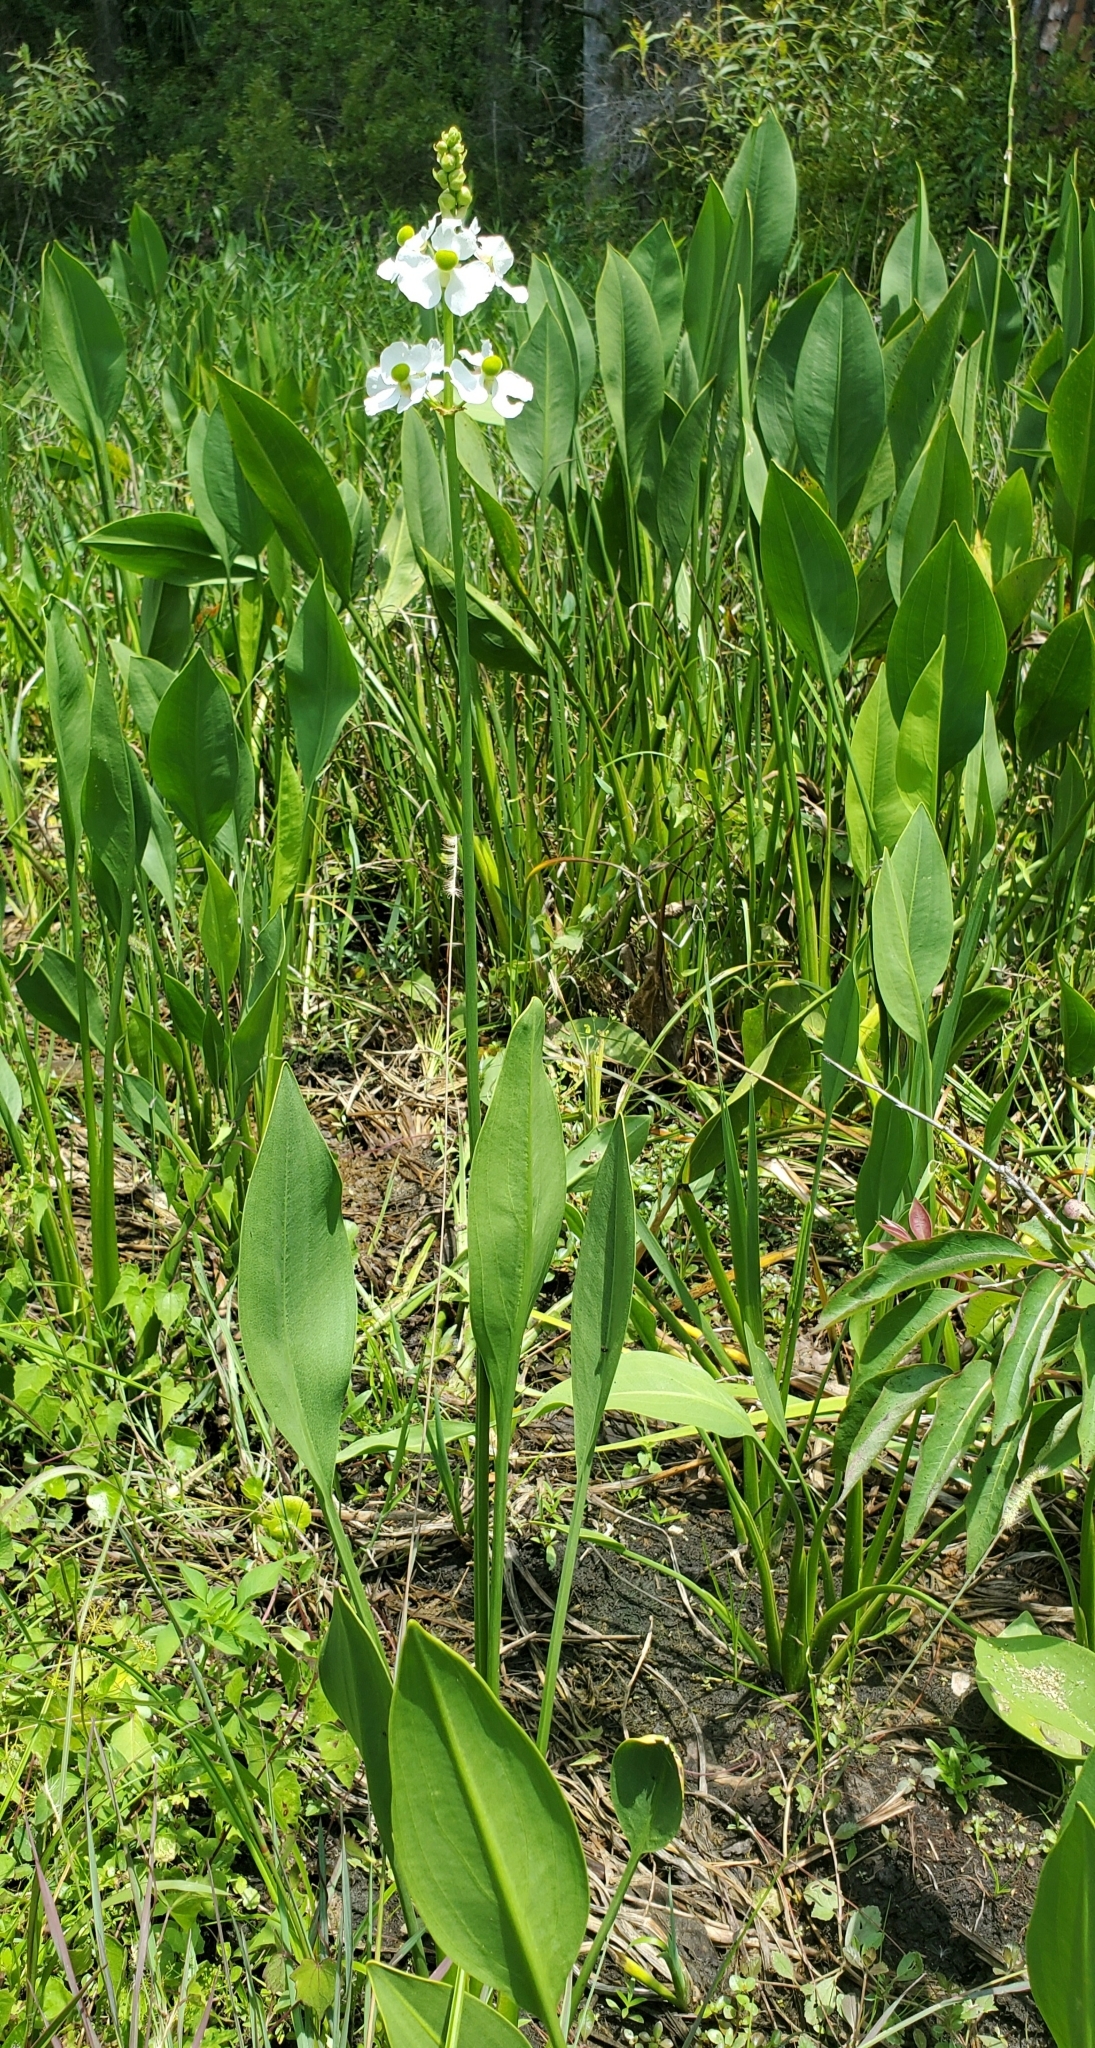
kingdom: Plantae
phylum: Tracheophyta
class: Liliopsida
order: Alismatales
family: Alismataceae
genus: Sagittaria
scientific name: Sagittaria lancifolia
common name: Lance-leaf arrowhead
